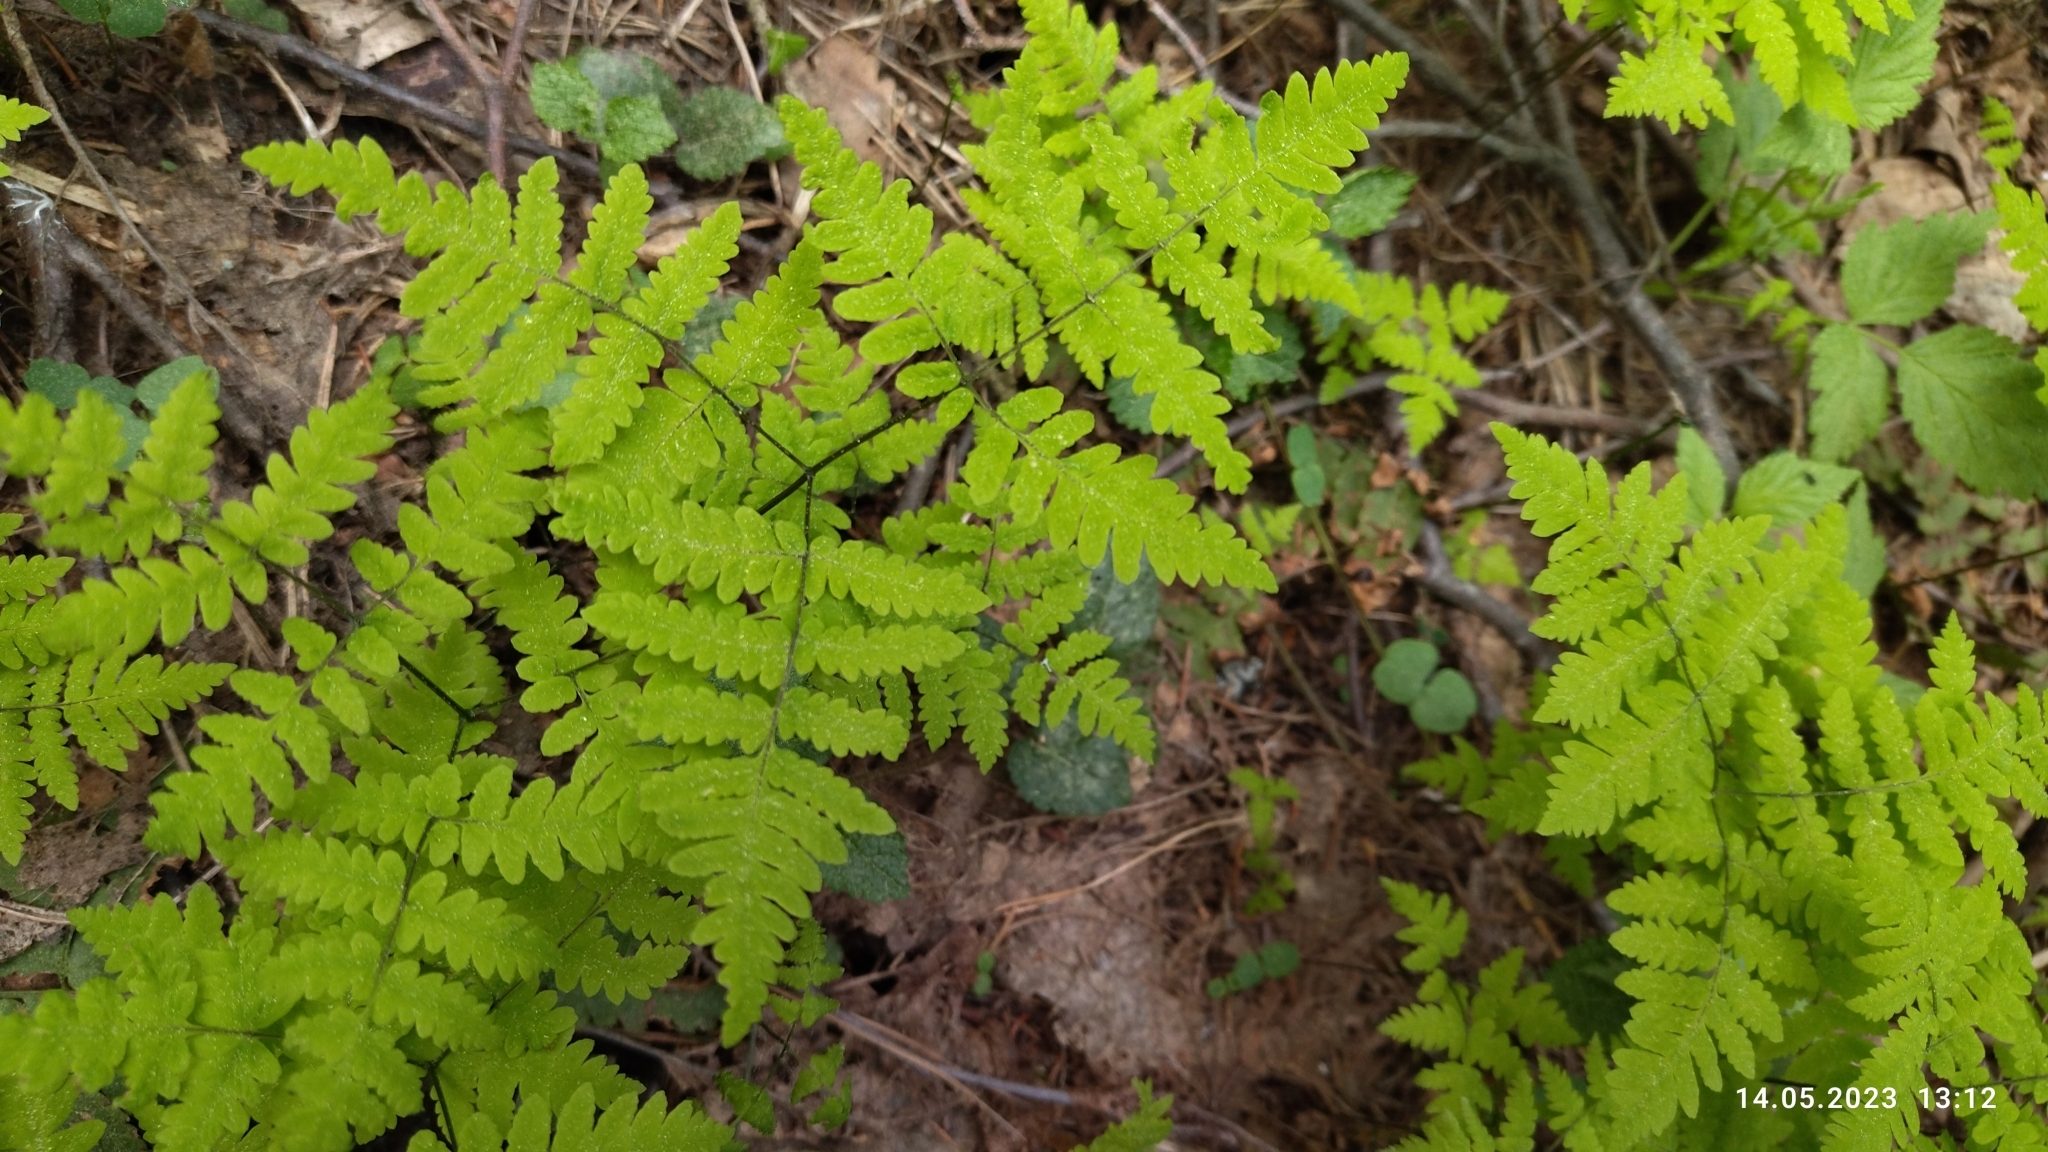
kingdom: Plantae
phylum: Tracheophyta
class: Polypodiopsida
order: Polypodiales
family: Cystopteridaceae
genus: Gymnocarpium
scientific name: Gymnocarpium dryopteris
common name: Oak fern
